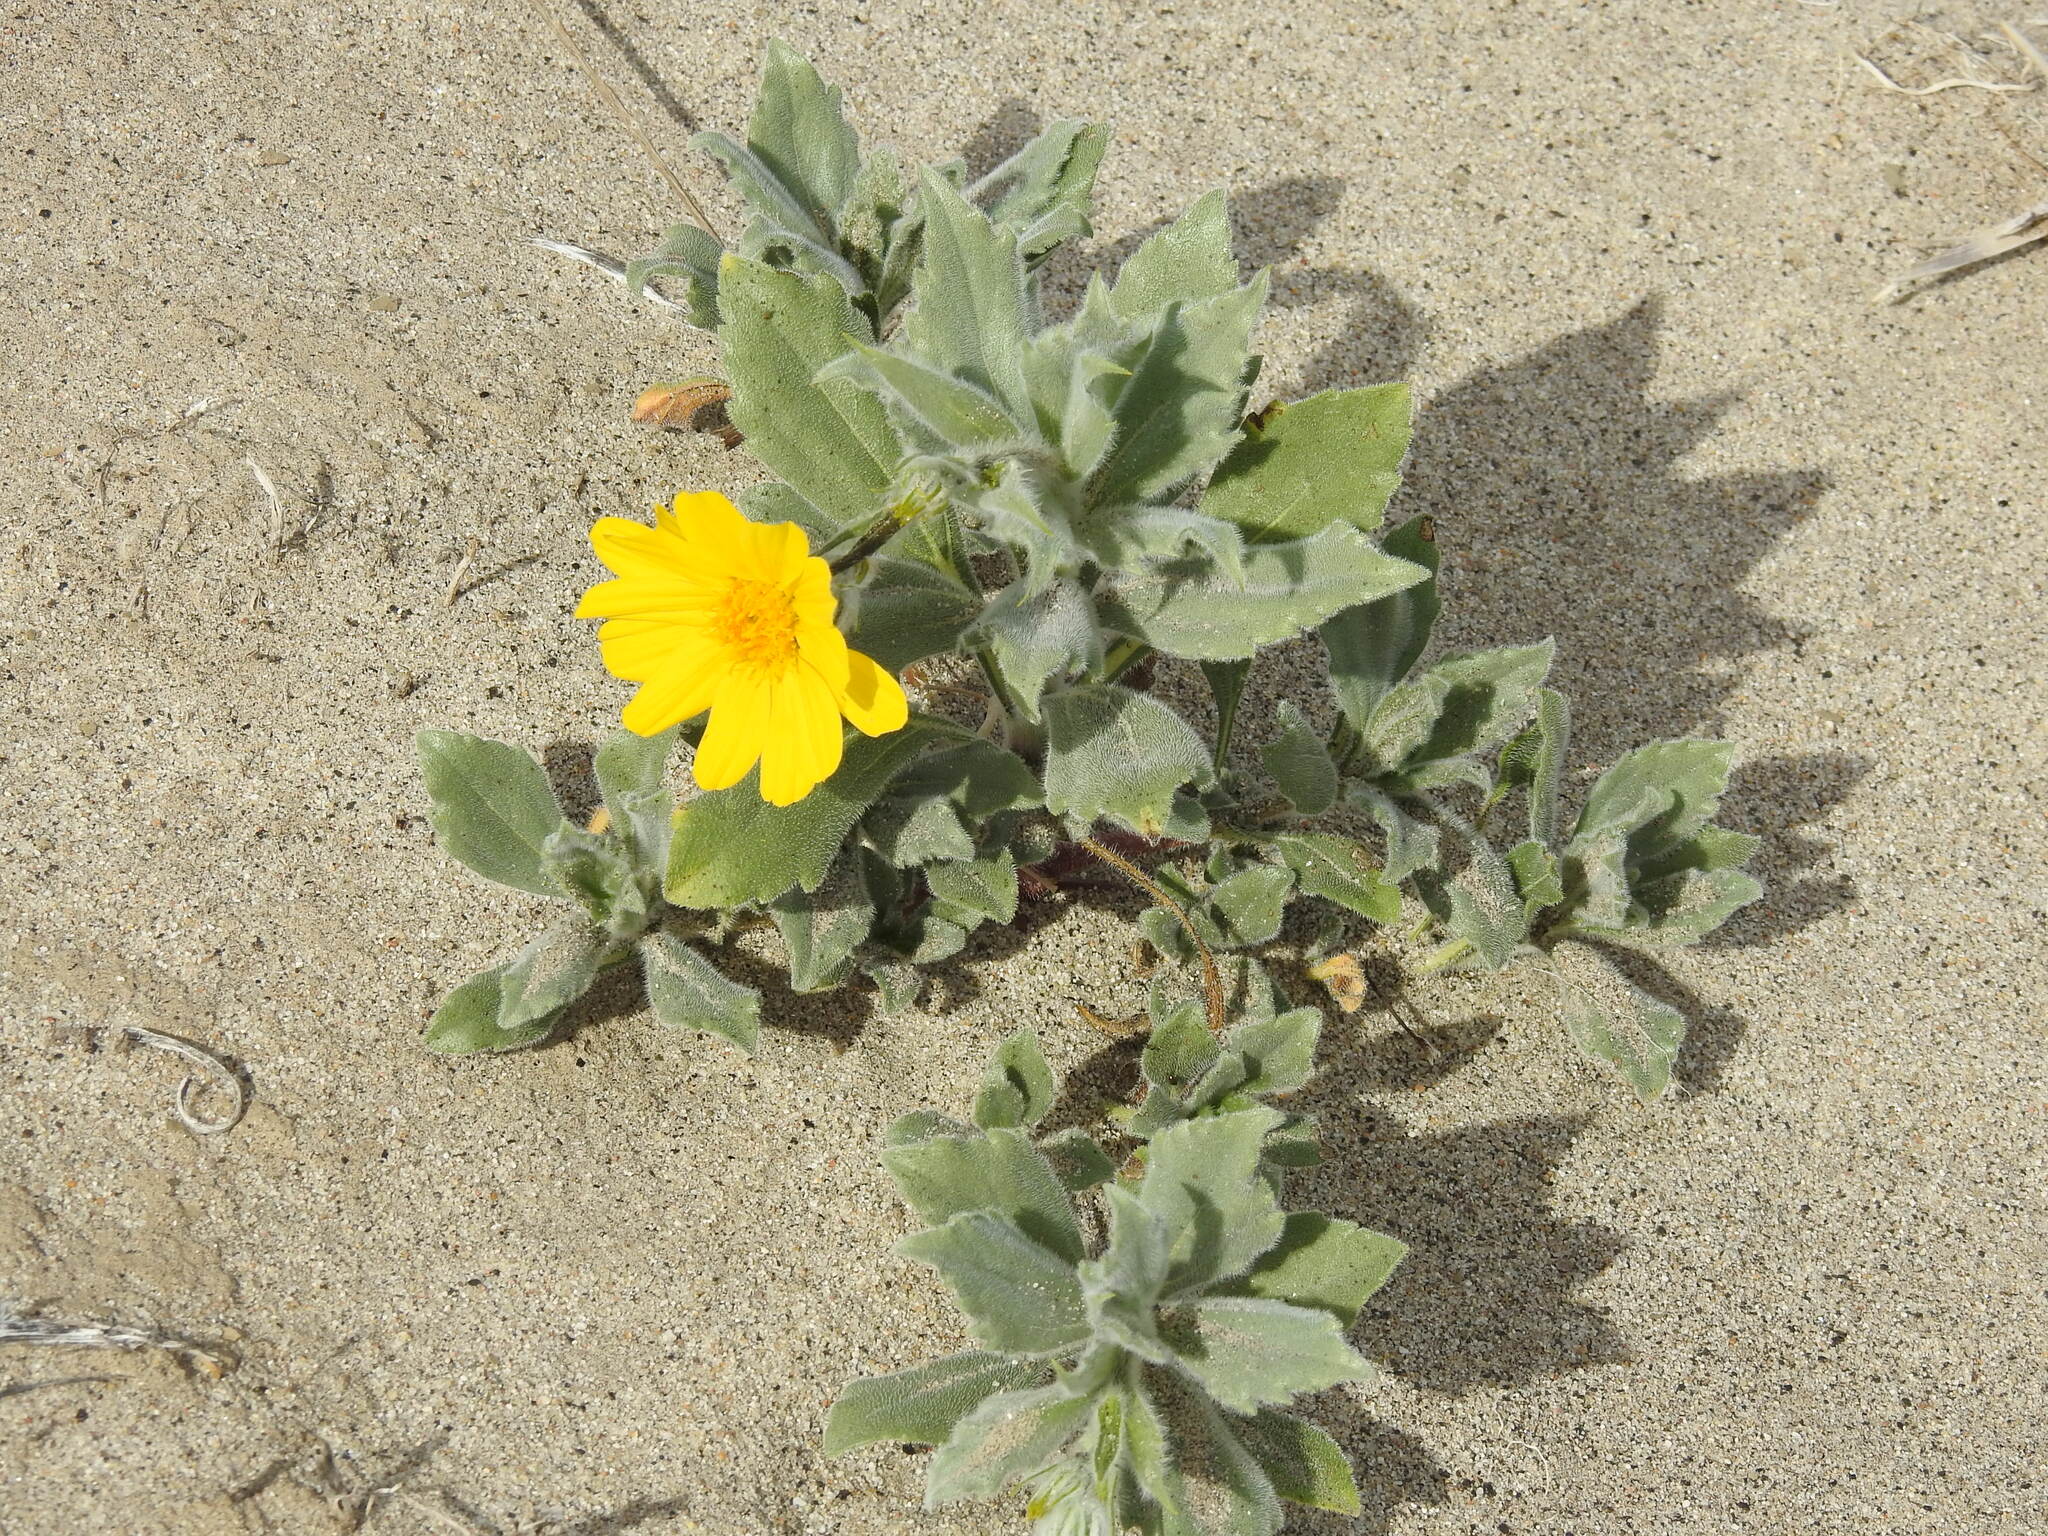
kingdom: Plantae
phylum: Tracheophyta
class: Magnoliopsida
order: Asterales
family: Asteraceae
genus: Geraea
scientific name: Geraea canescens
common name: Desert-gold
